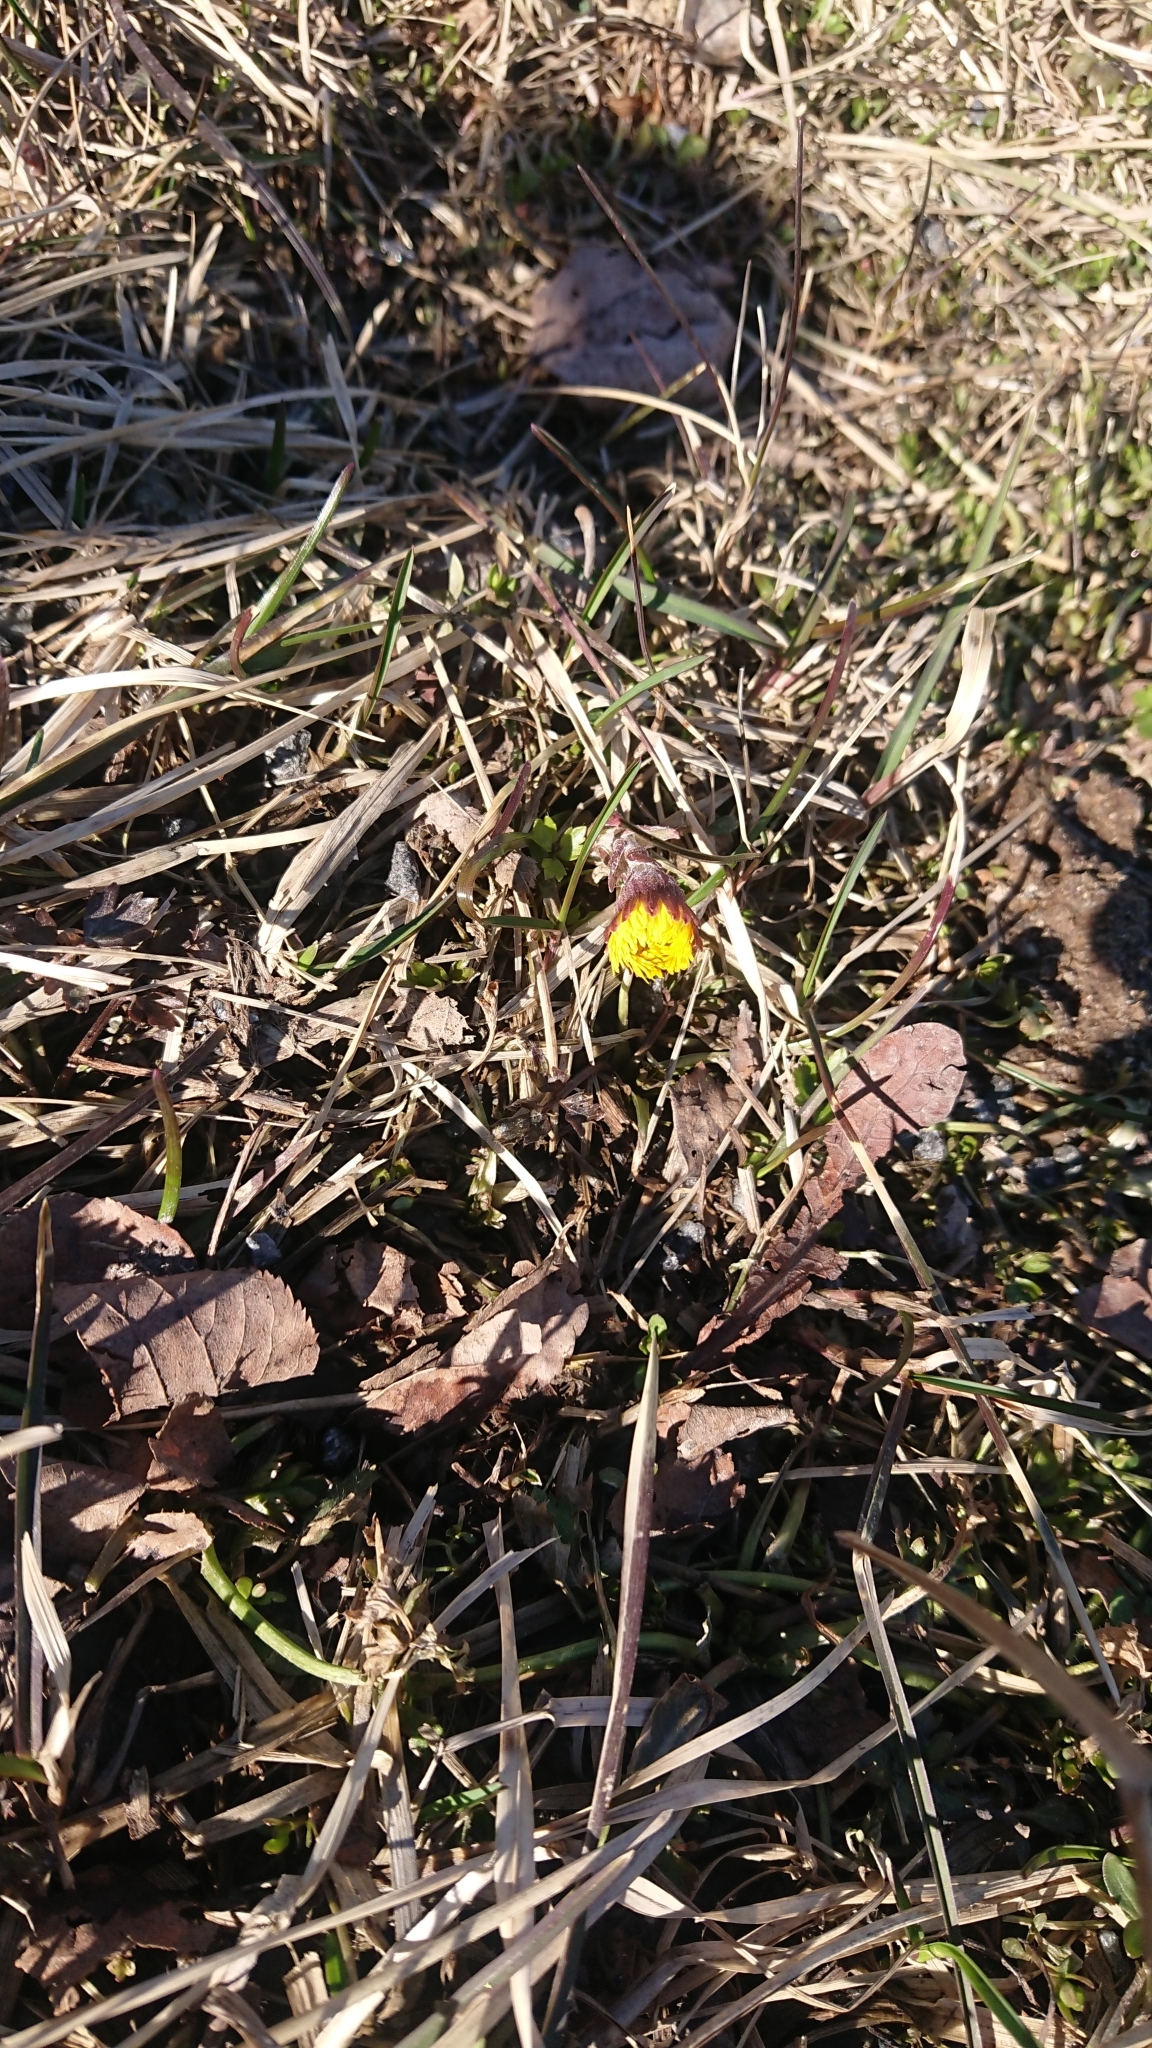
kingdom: Plantae
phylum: Tracheophyta
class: Magnoliopsida
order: Asterales
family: Asteraceae
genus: Tussilago
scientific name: Tussilago farfara
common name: Coltsfoot
